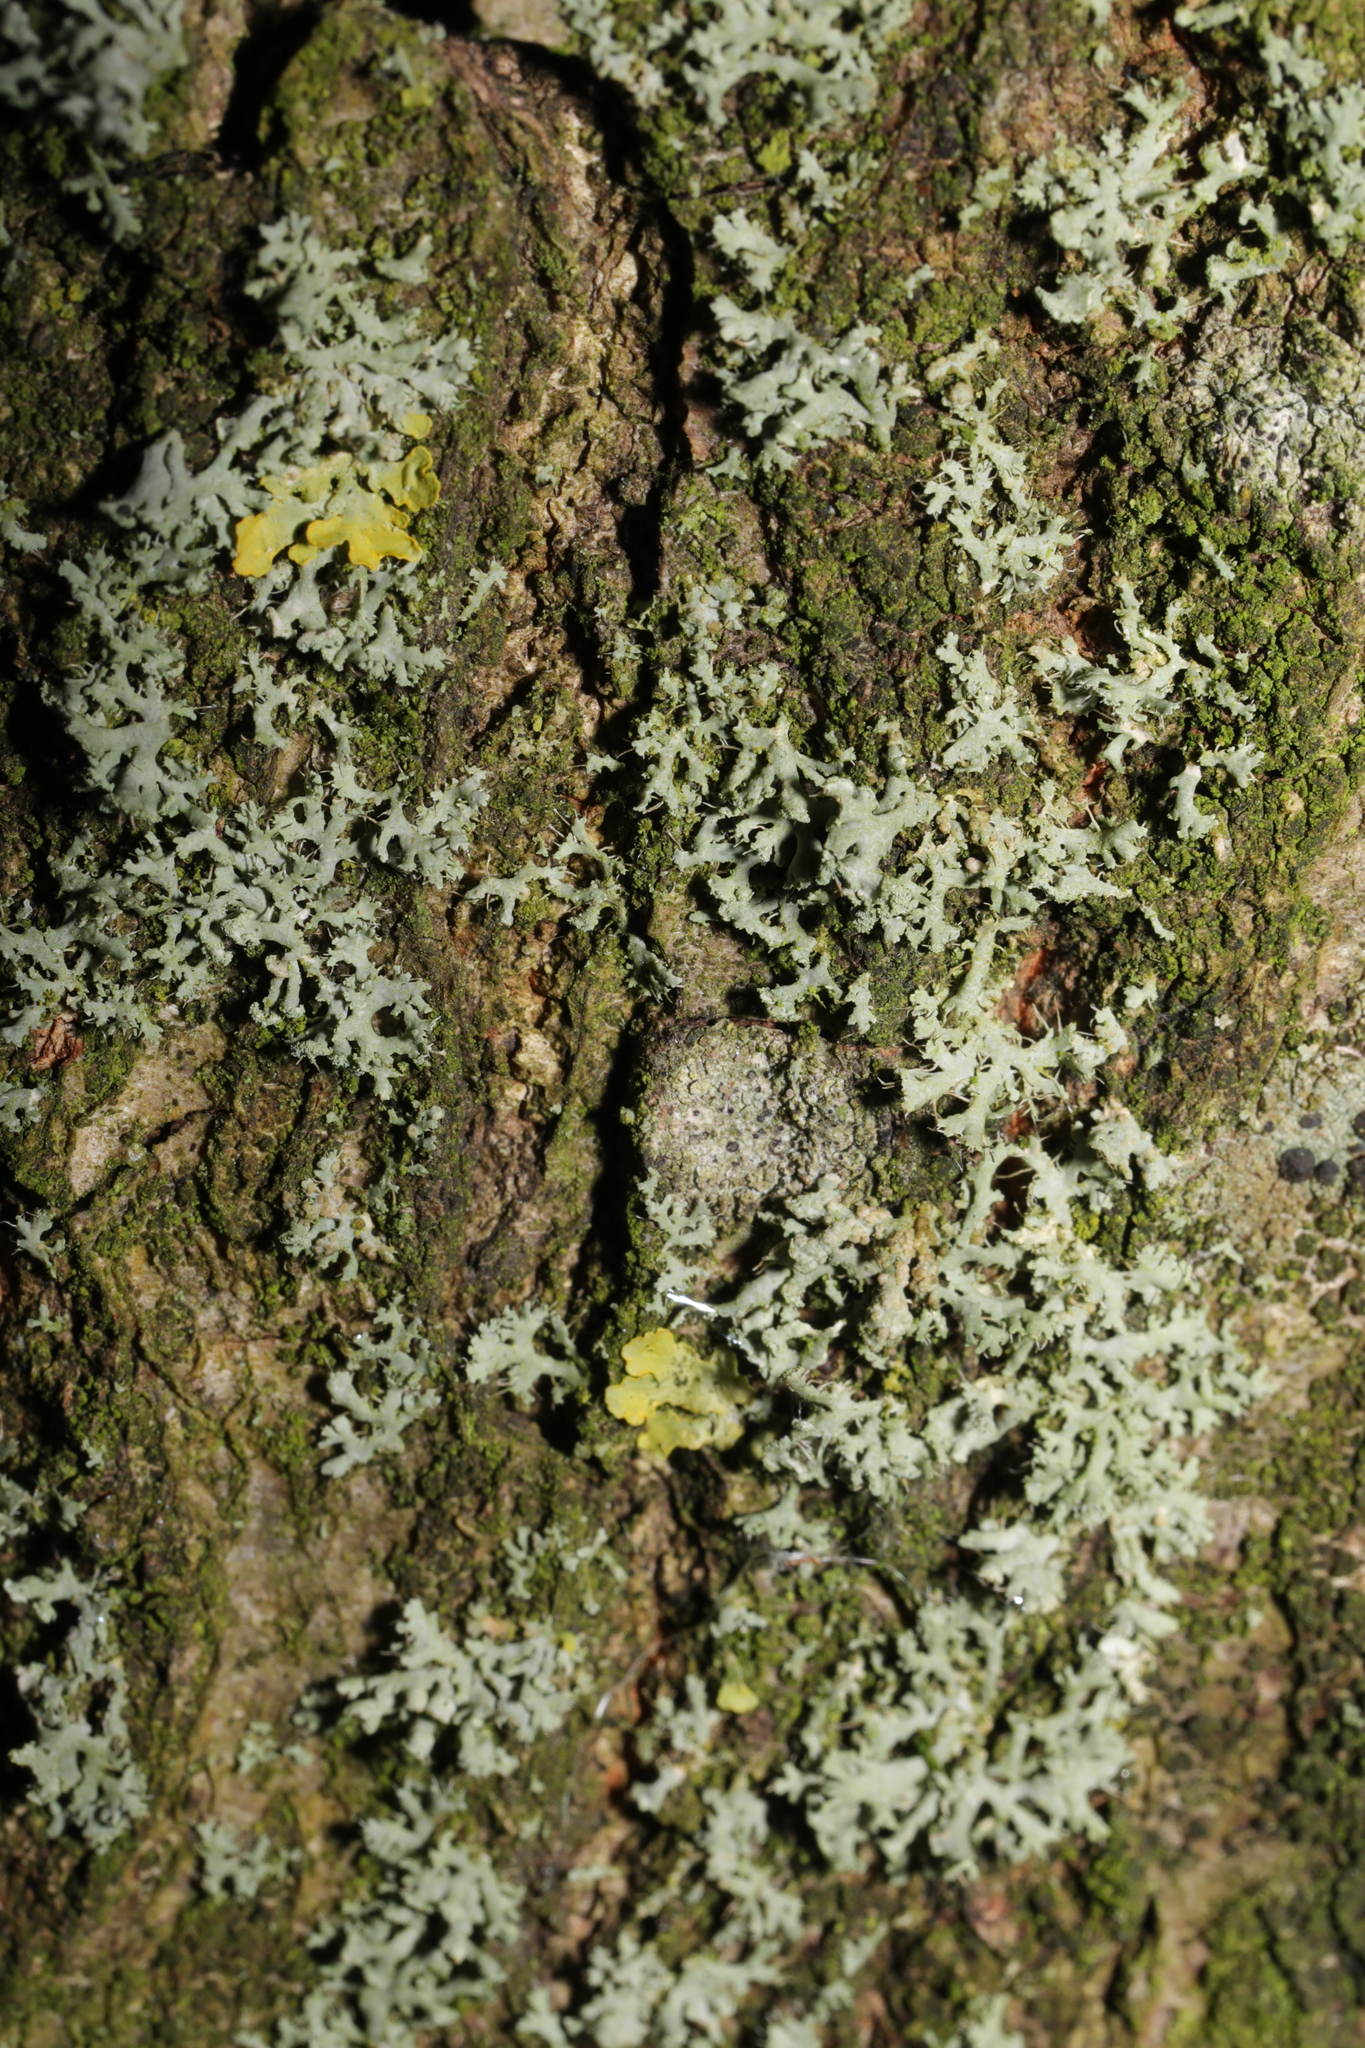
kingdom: Fungi
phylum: Ascomycota
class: Lecanoromycetes
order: Caliciales
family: Physciaceae
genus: Physcia
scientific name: Physcia tenella
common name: Fringed rosette lichen
